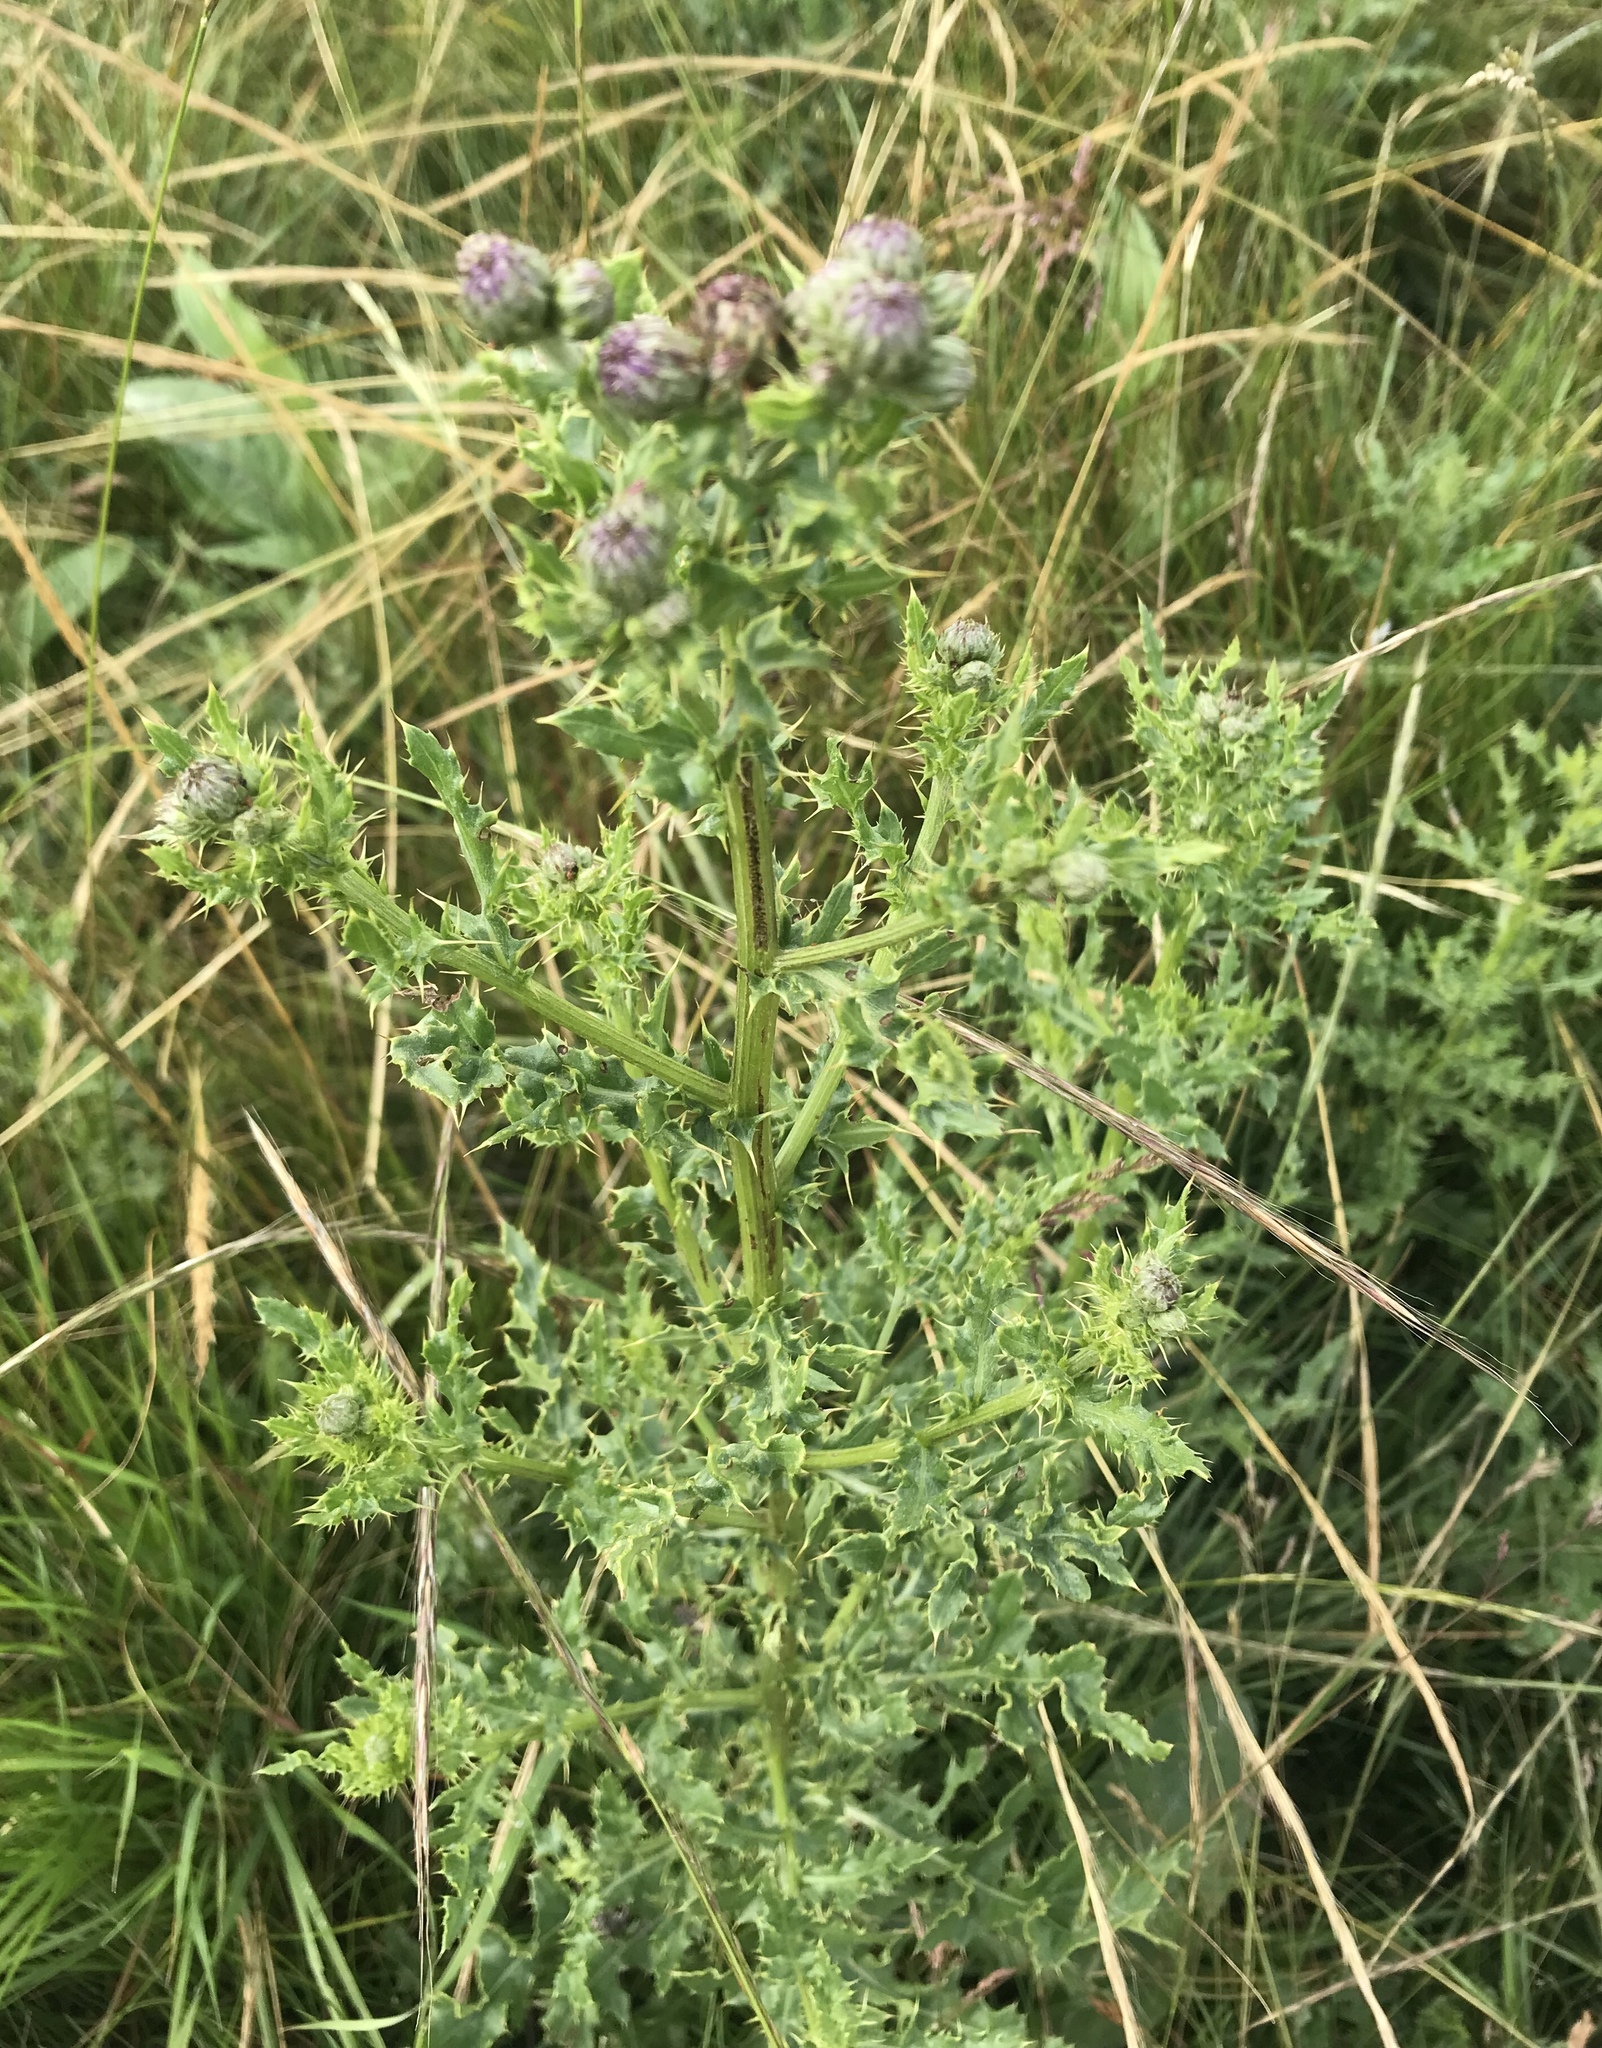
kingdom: Plantae
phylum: Tracheophyta
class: Magnoliopsida
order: Asterales
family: Asteraceae
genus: Cirsium
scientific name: Cirsium arvense
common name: Creeping thistle
